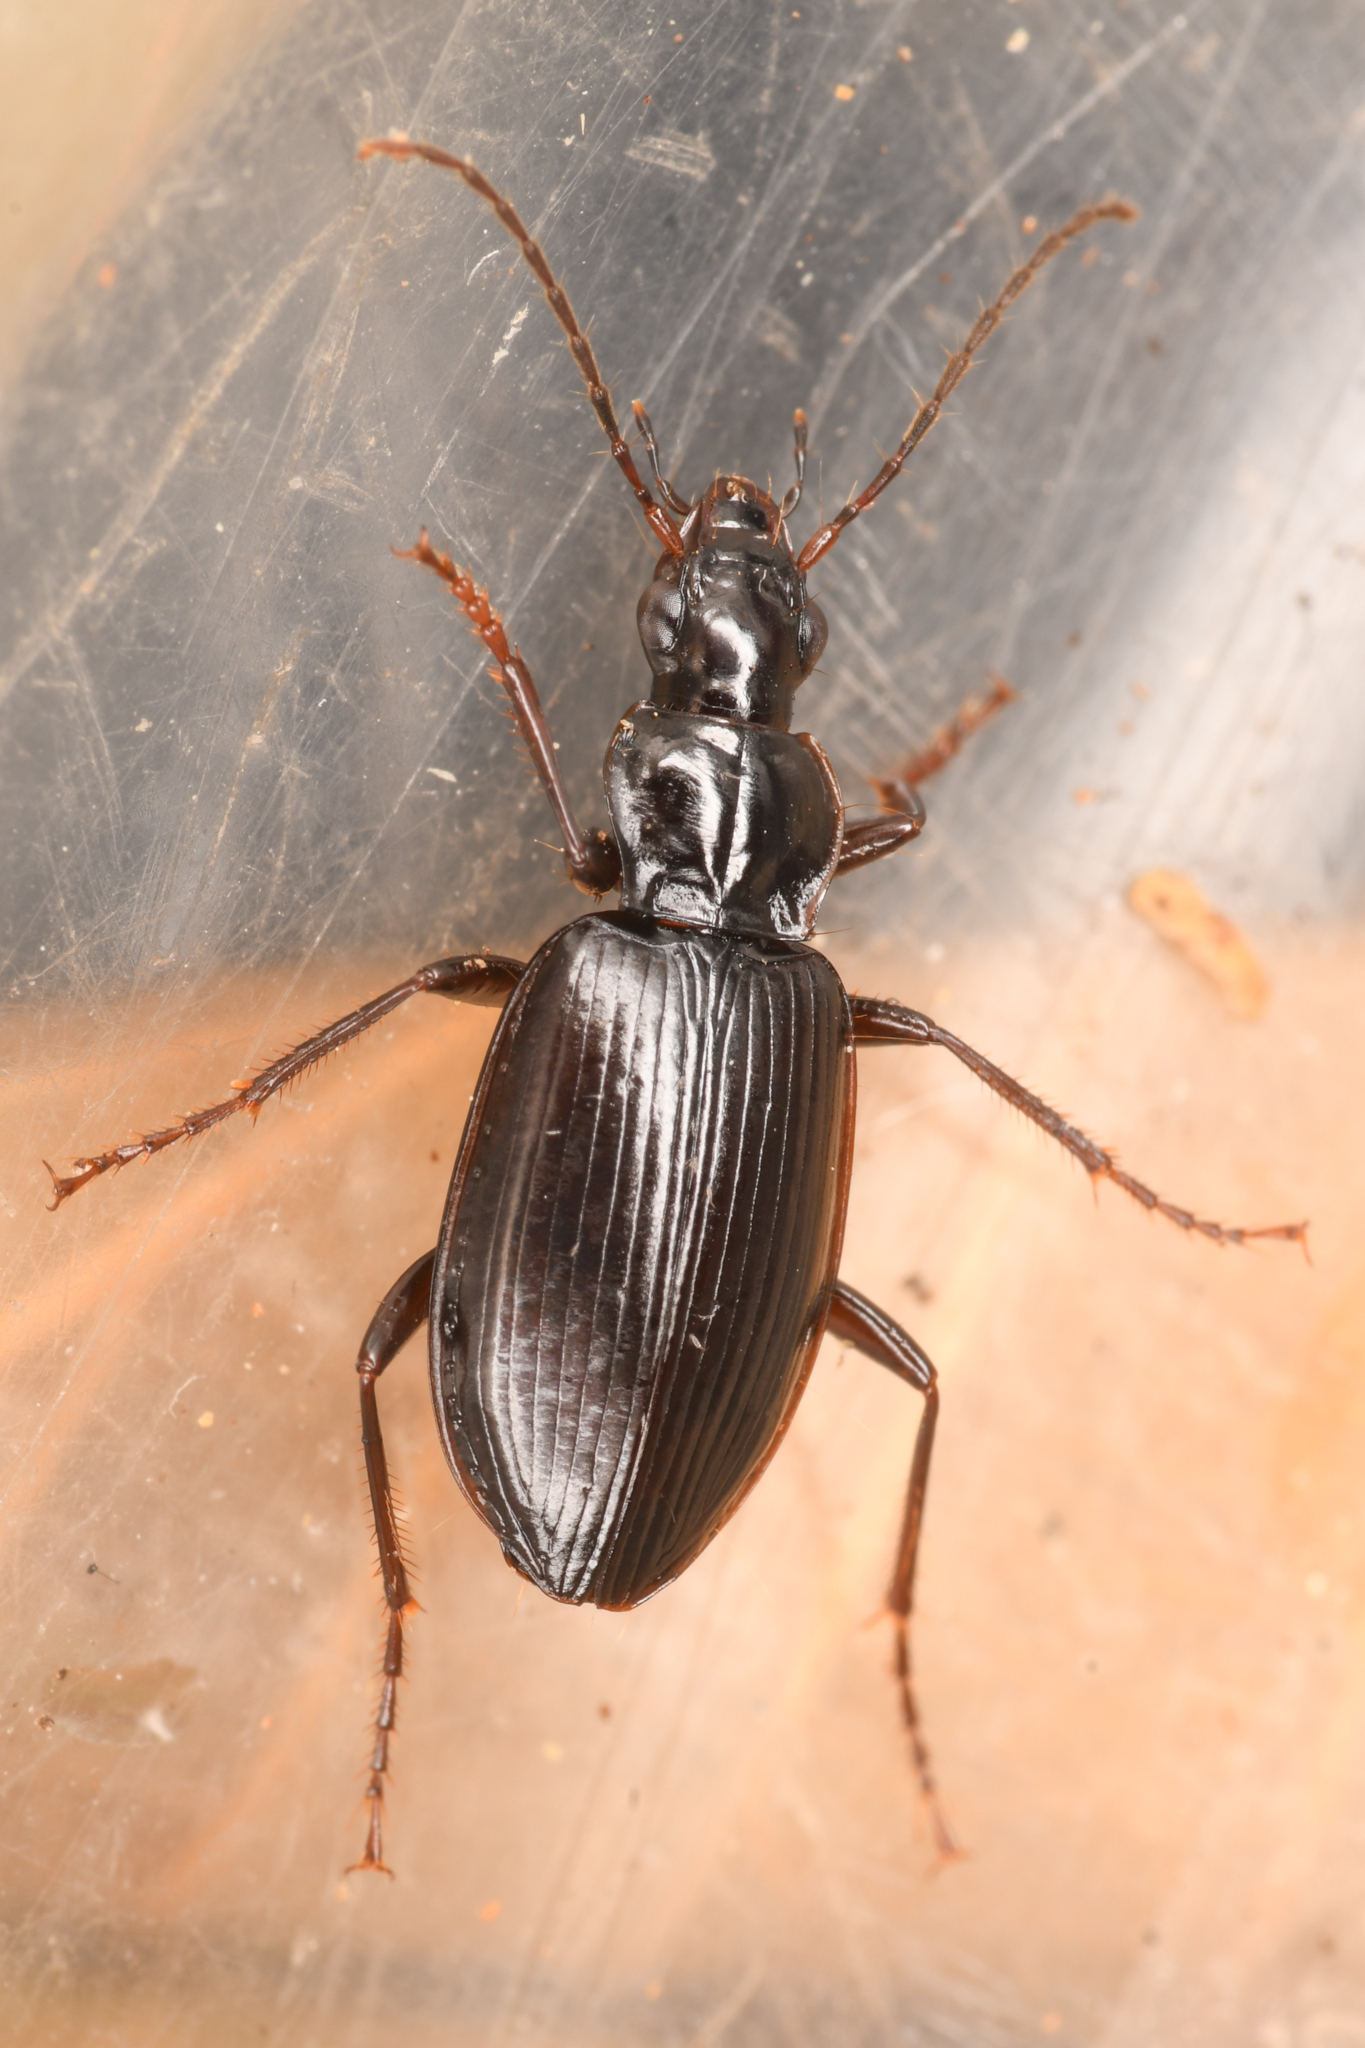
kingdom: Animalia
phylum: Arthropoda
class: Insecta
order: Coleoptera
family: Carabidae
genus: Platynus
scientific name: Platynus brunneomarginatus
